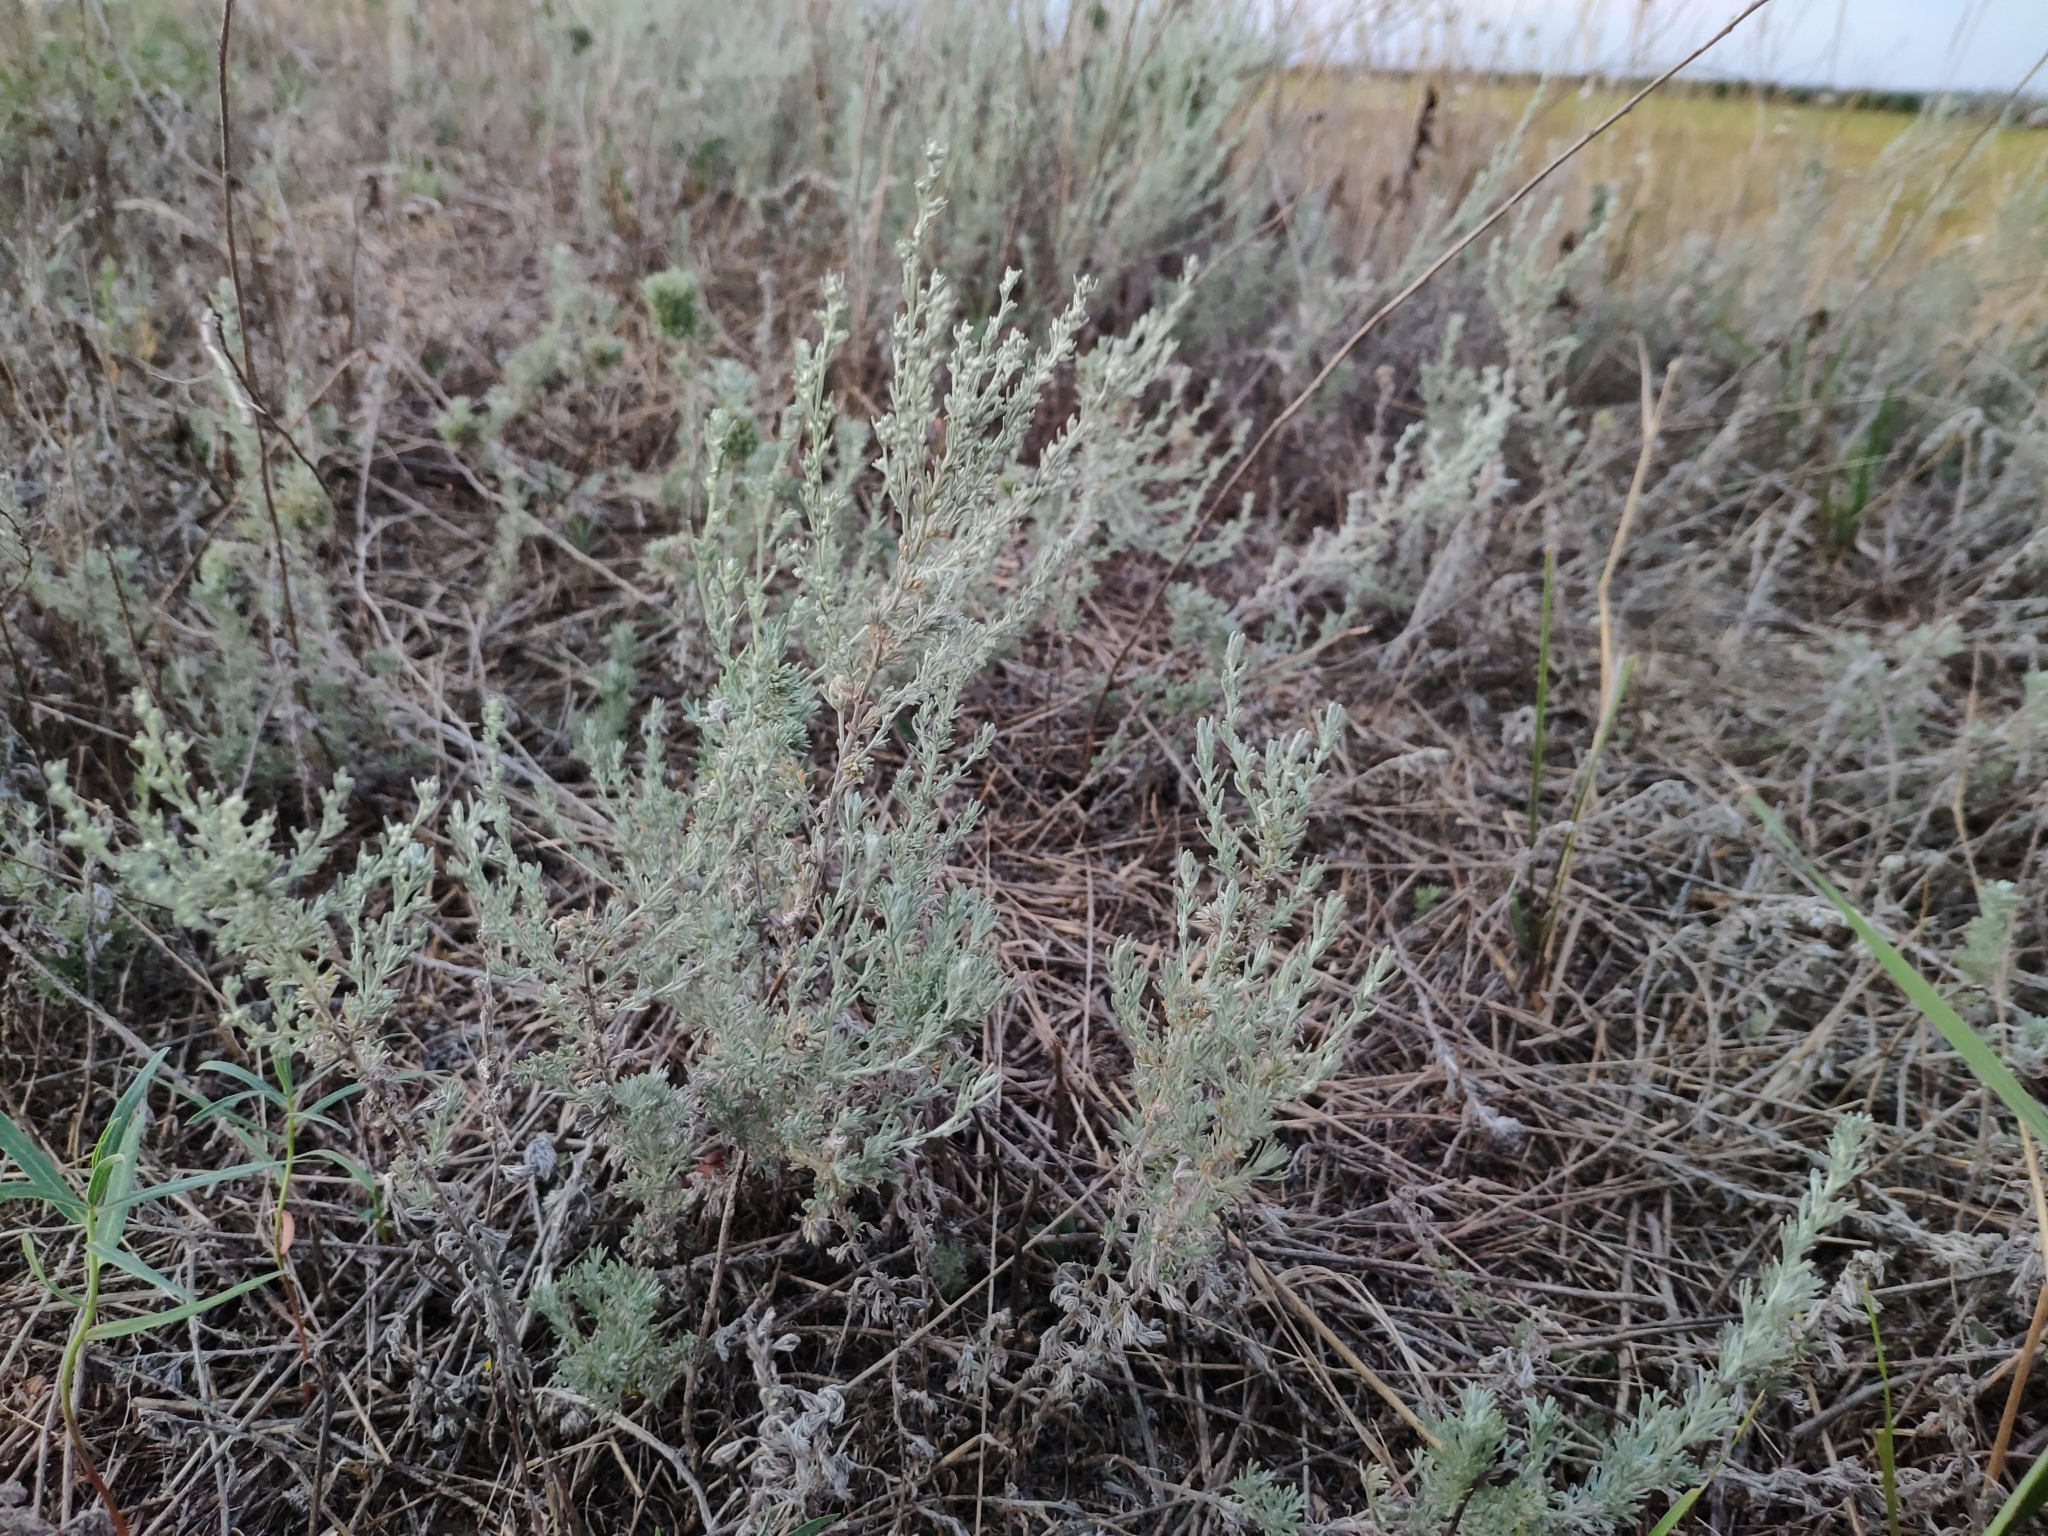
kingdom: Plantae
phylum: Tracheophyta
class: Magnoliopsida
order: Asterales
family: Asteraceae
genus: Artemisia
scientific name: Artemisia austriaca
